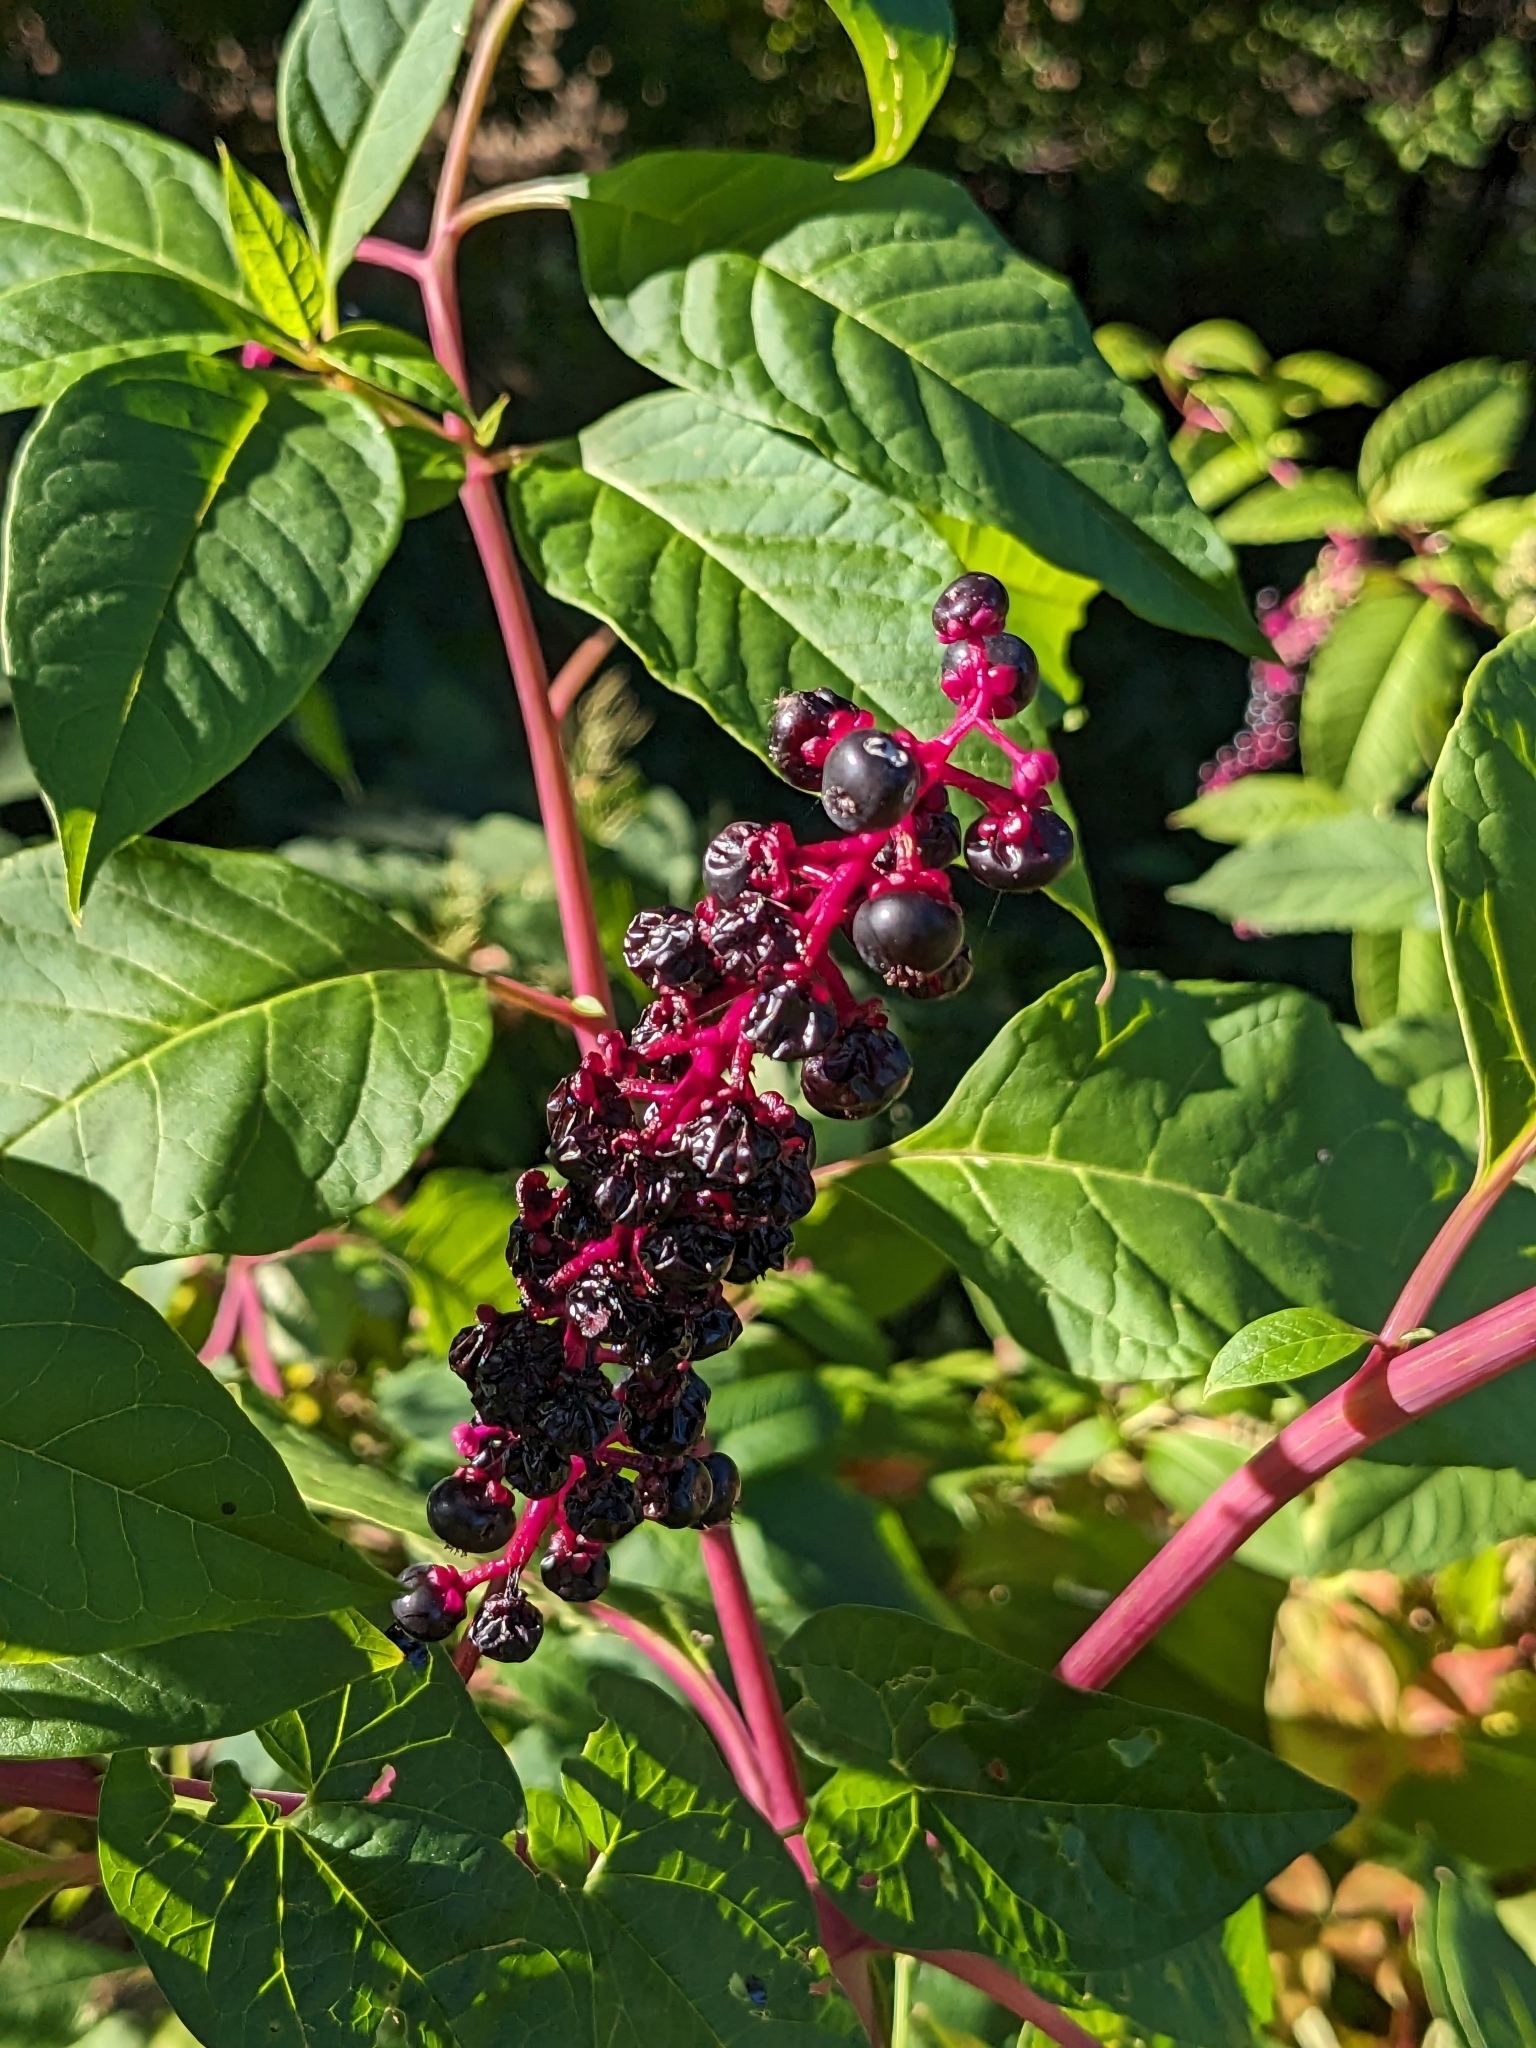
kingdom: Plantae
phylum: Tracheophyta
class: Magnoliopsida
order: Caryophyllales
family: Phytolaccaceae
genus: Phytolacca
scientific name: Phytolacca americana
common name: American pokeweed
